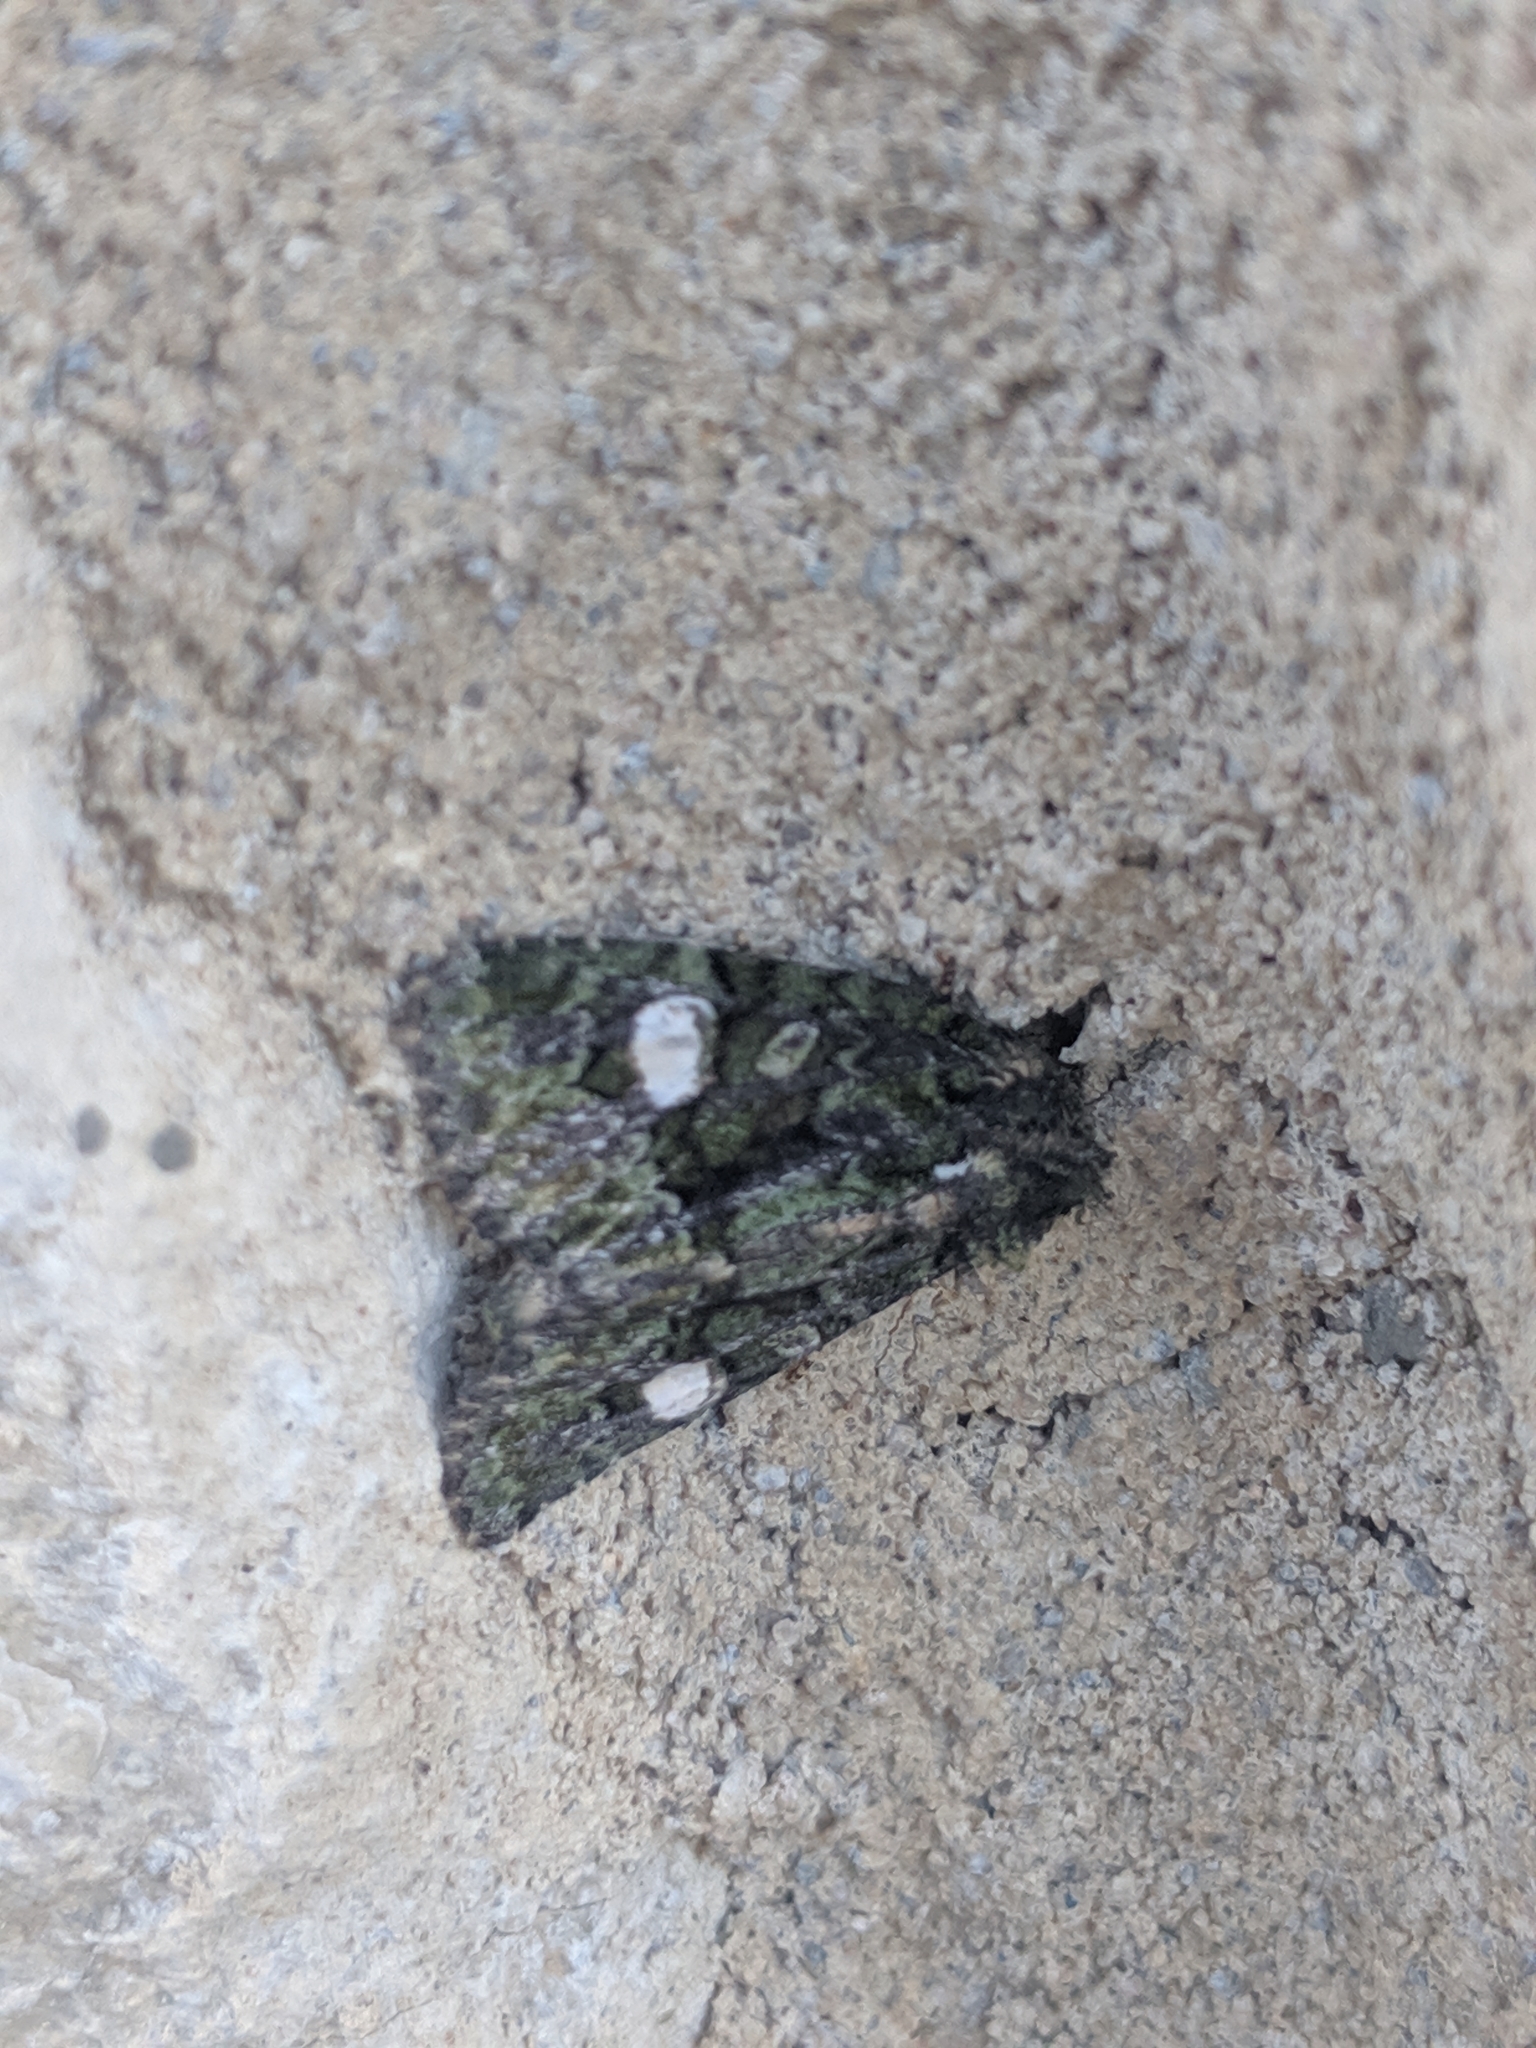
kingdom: Animalia
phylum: Arthropoda
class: Insecta
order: Lepidoptera
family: Noctuidae
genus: Phosphila
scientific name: Phosphila miselioides
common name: Spotted phosphila moth
